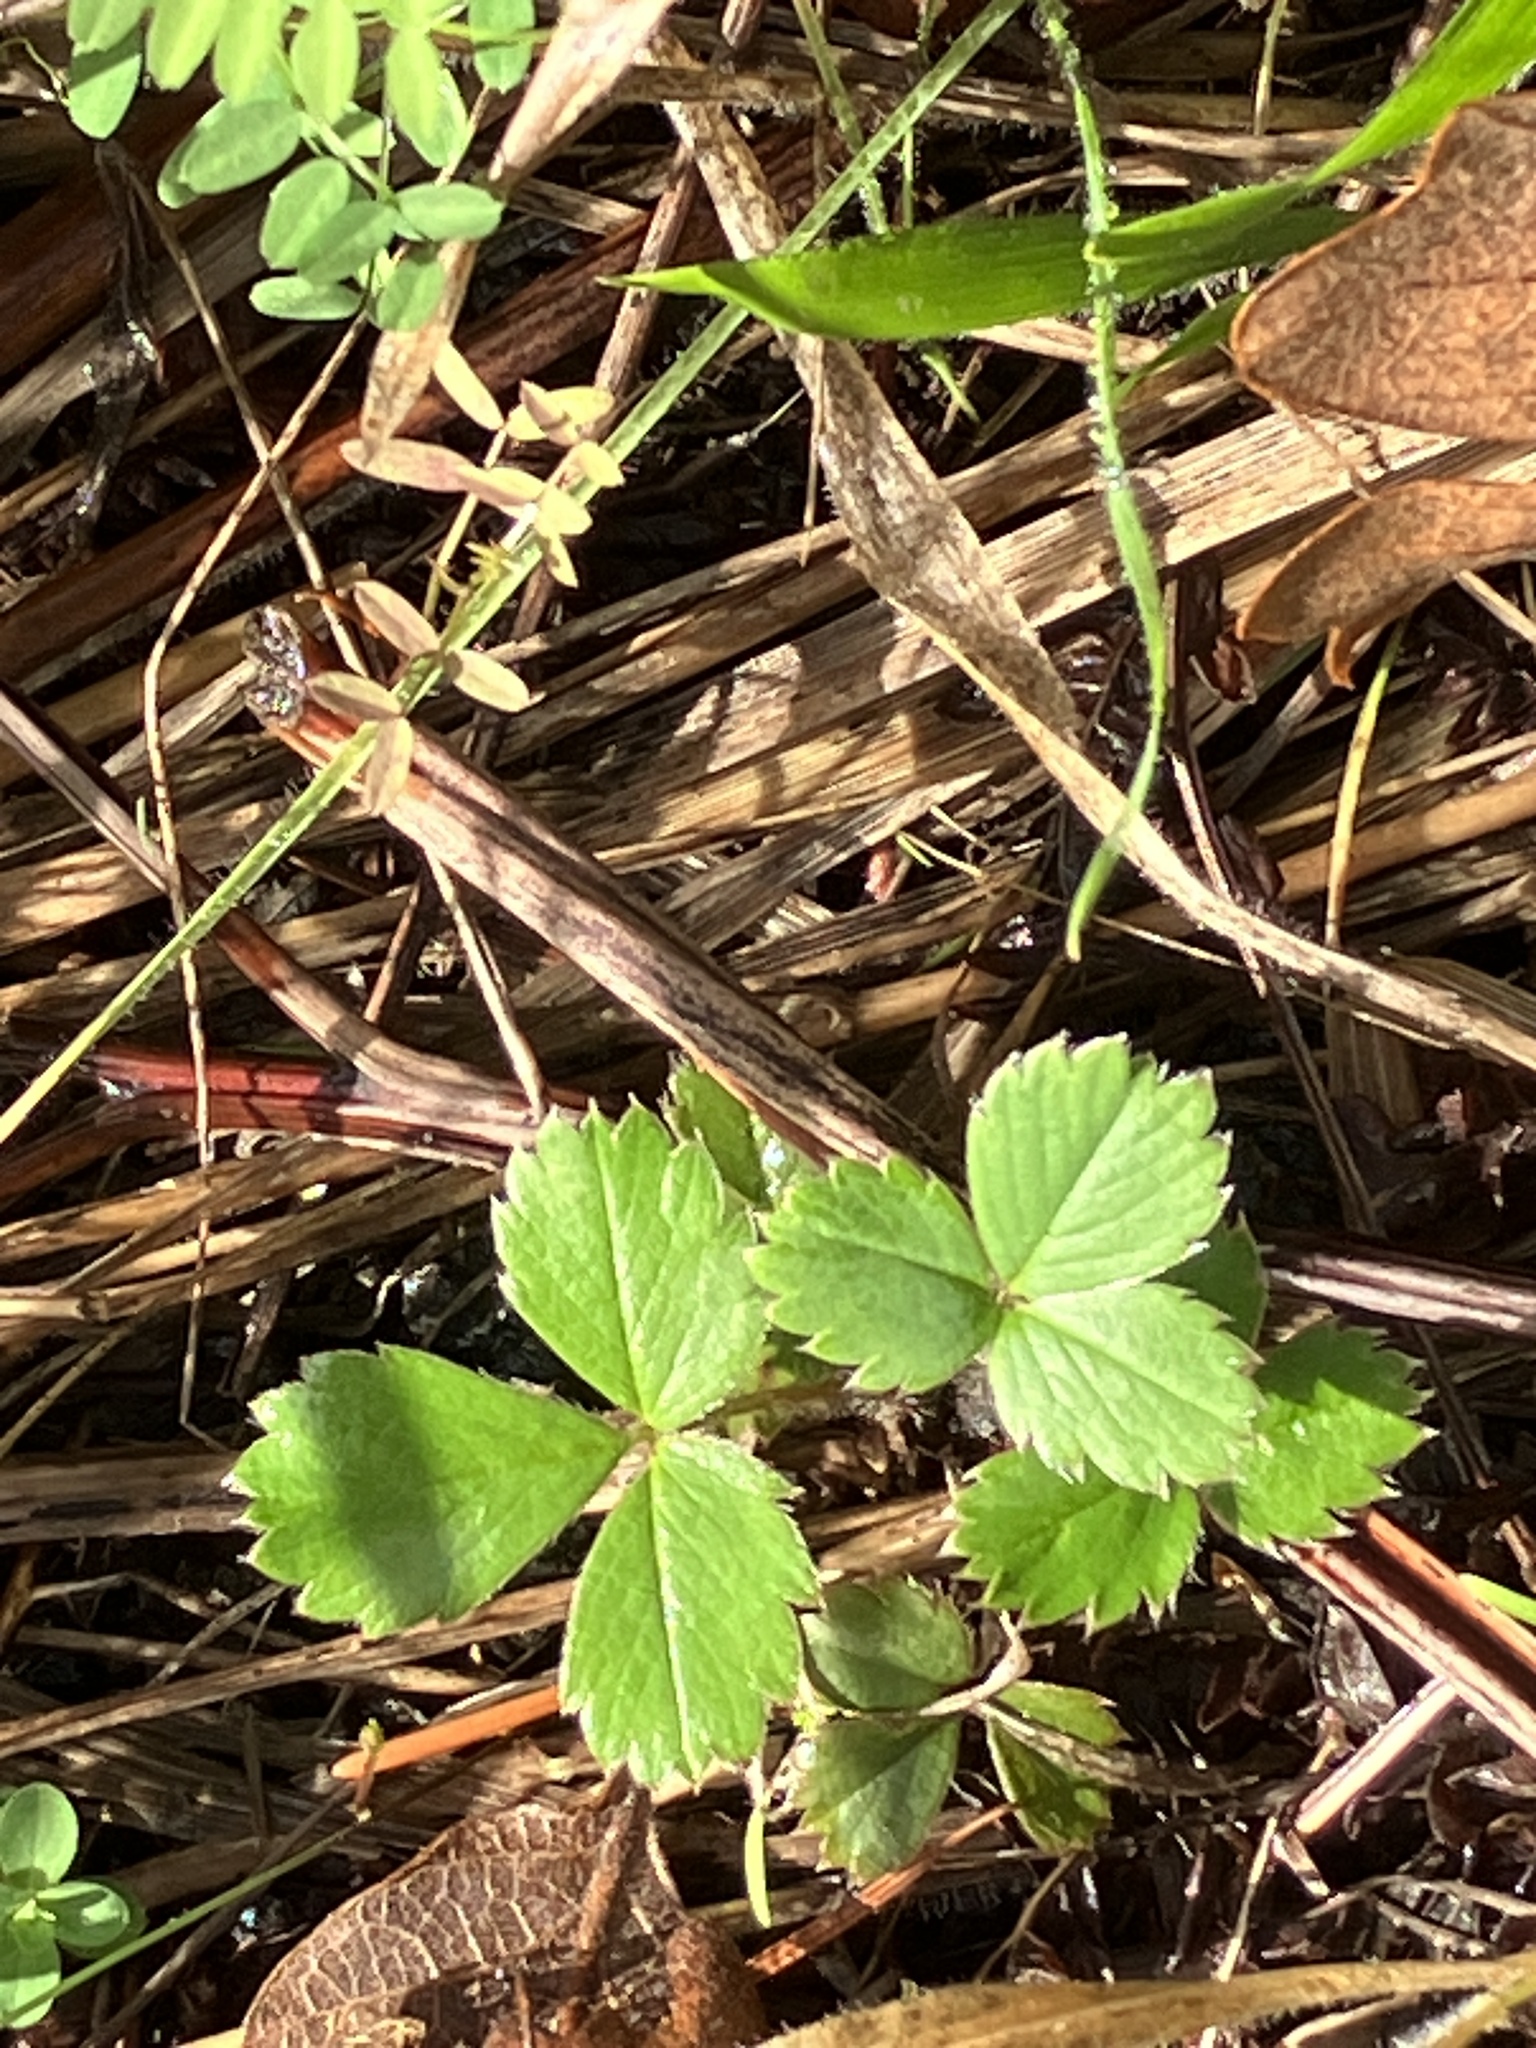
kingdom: Plantae
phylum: Tracheophyta
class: Magnoliopsida
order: Rosales
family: Rosaceae
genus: Fragaria
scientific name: Fragaria ananassa
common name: Garden strawberry
